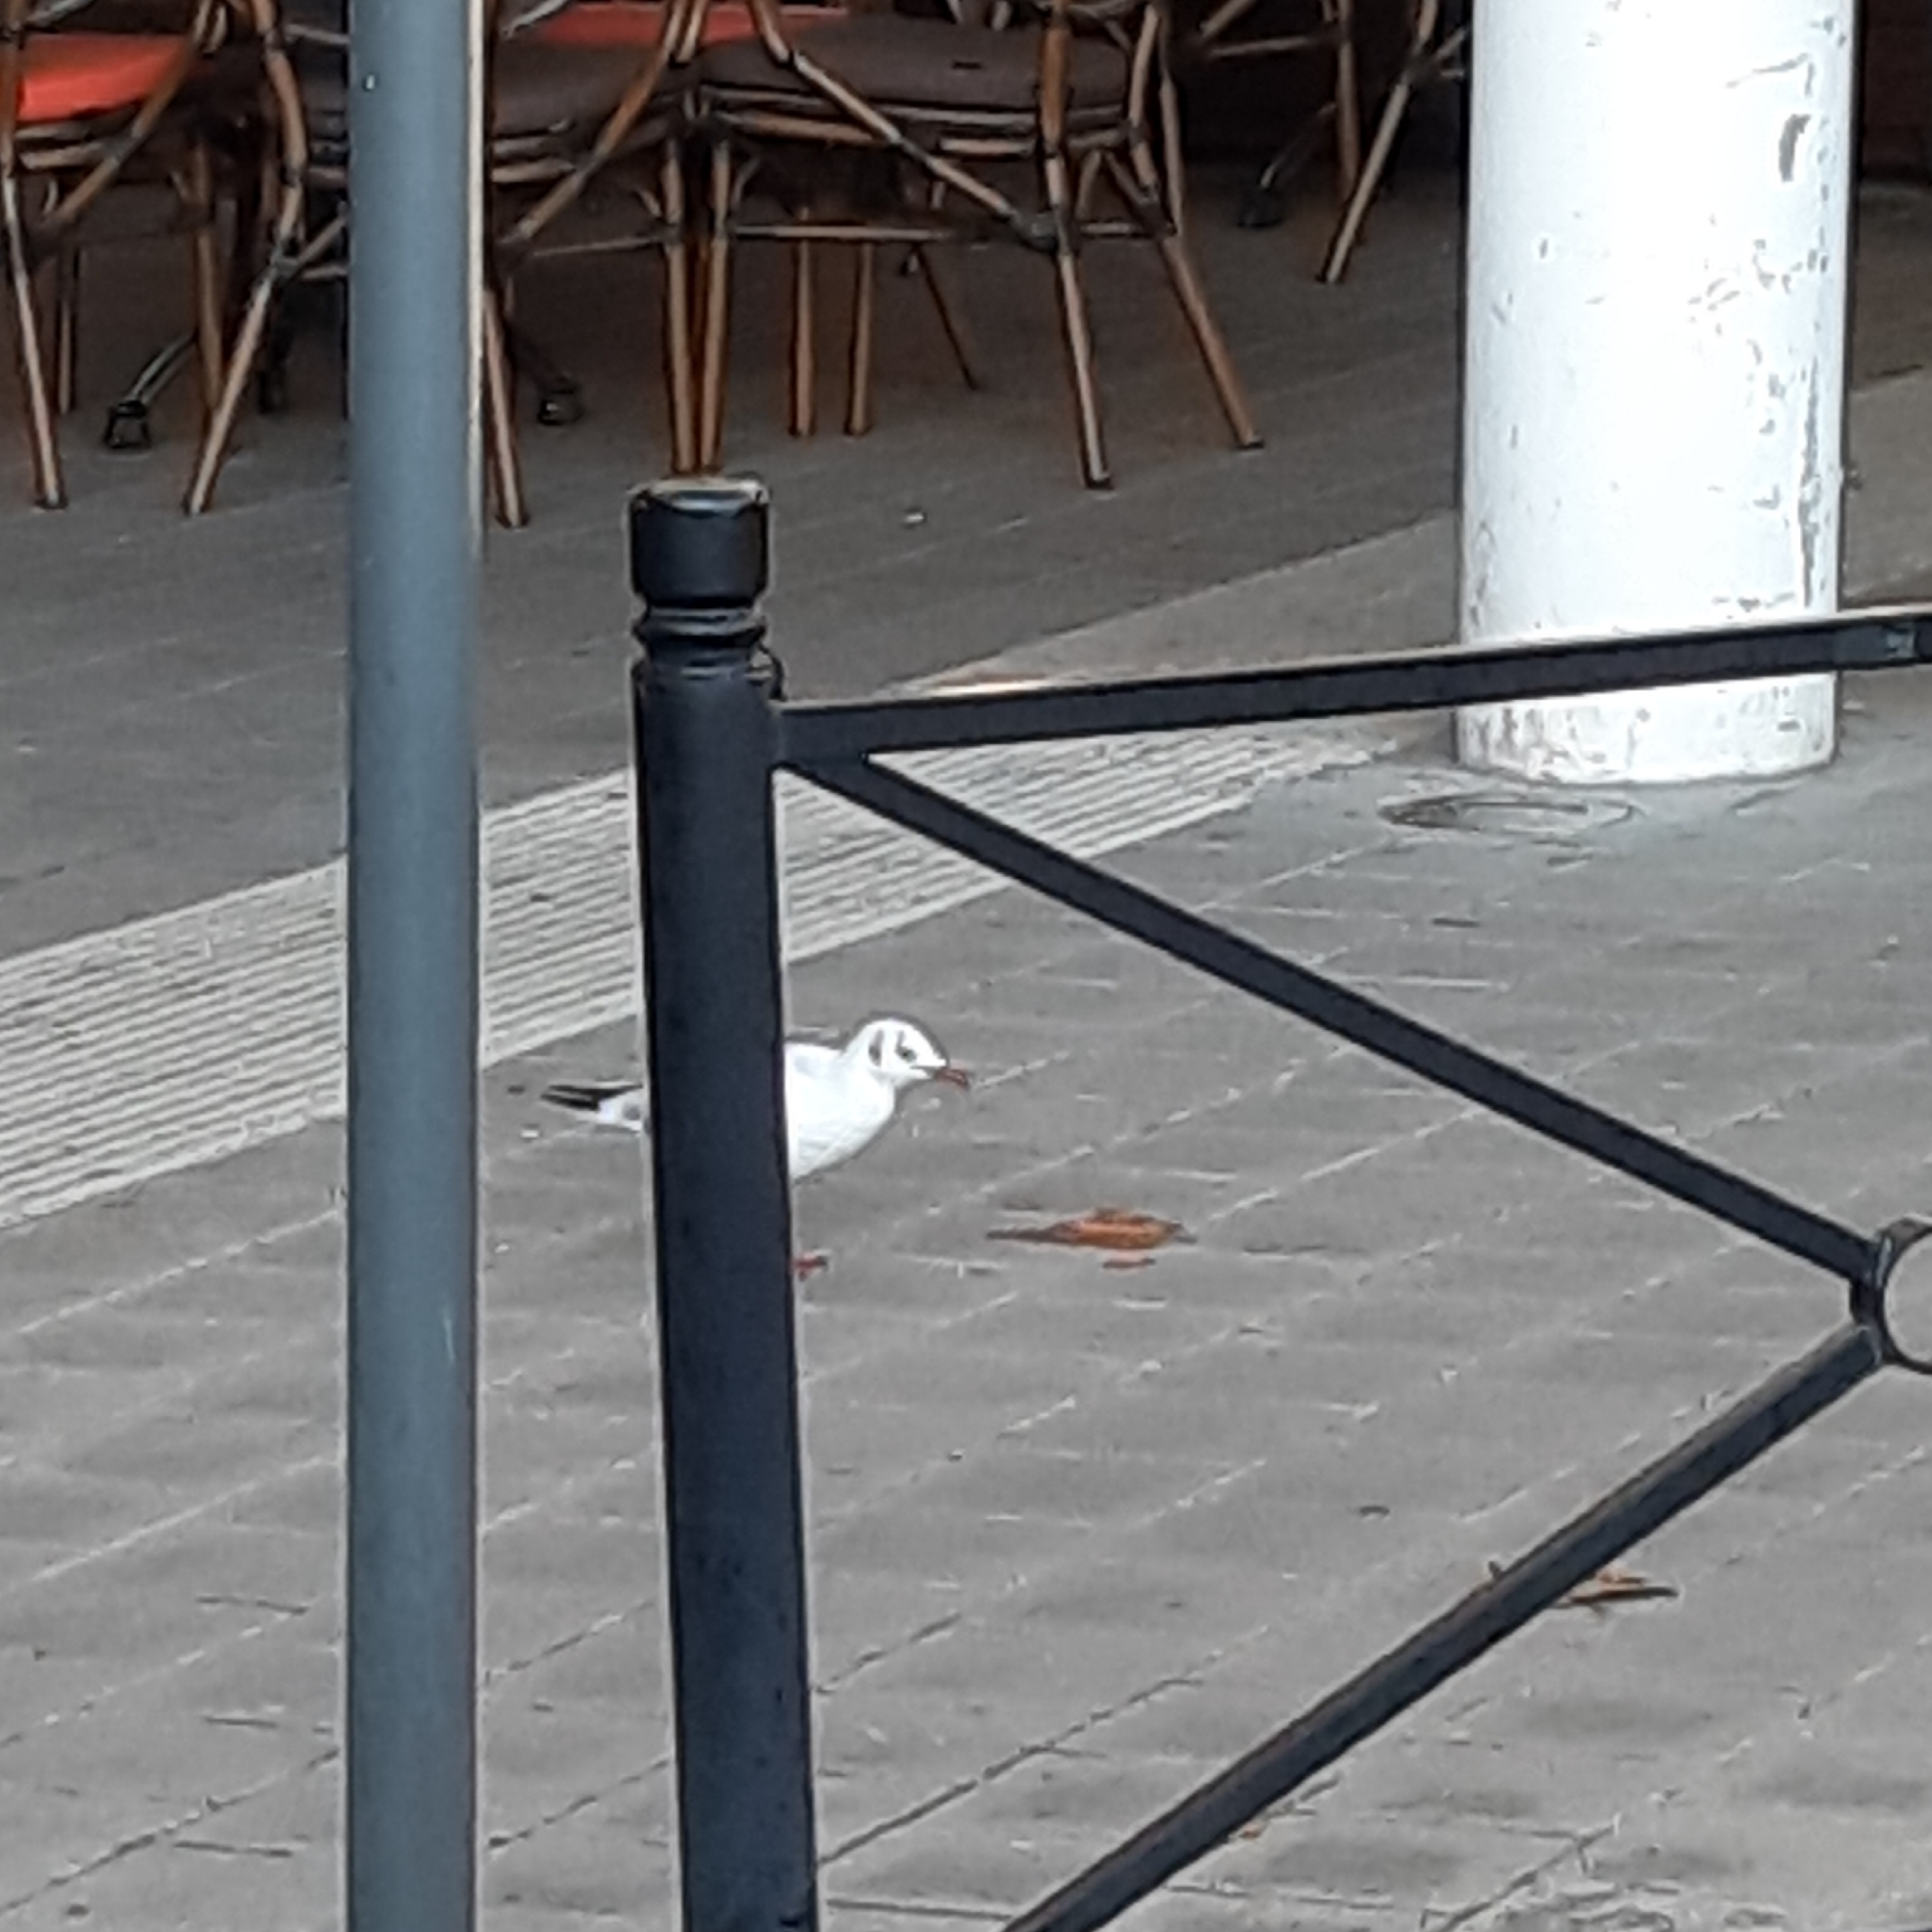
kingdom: Animalia
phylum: Chordata
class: Aves
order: Charadriiformes
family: Laridae
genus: Chroicocephalus
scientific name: Chroicocephalus ridibundus
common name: Black-headed gull
